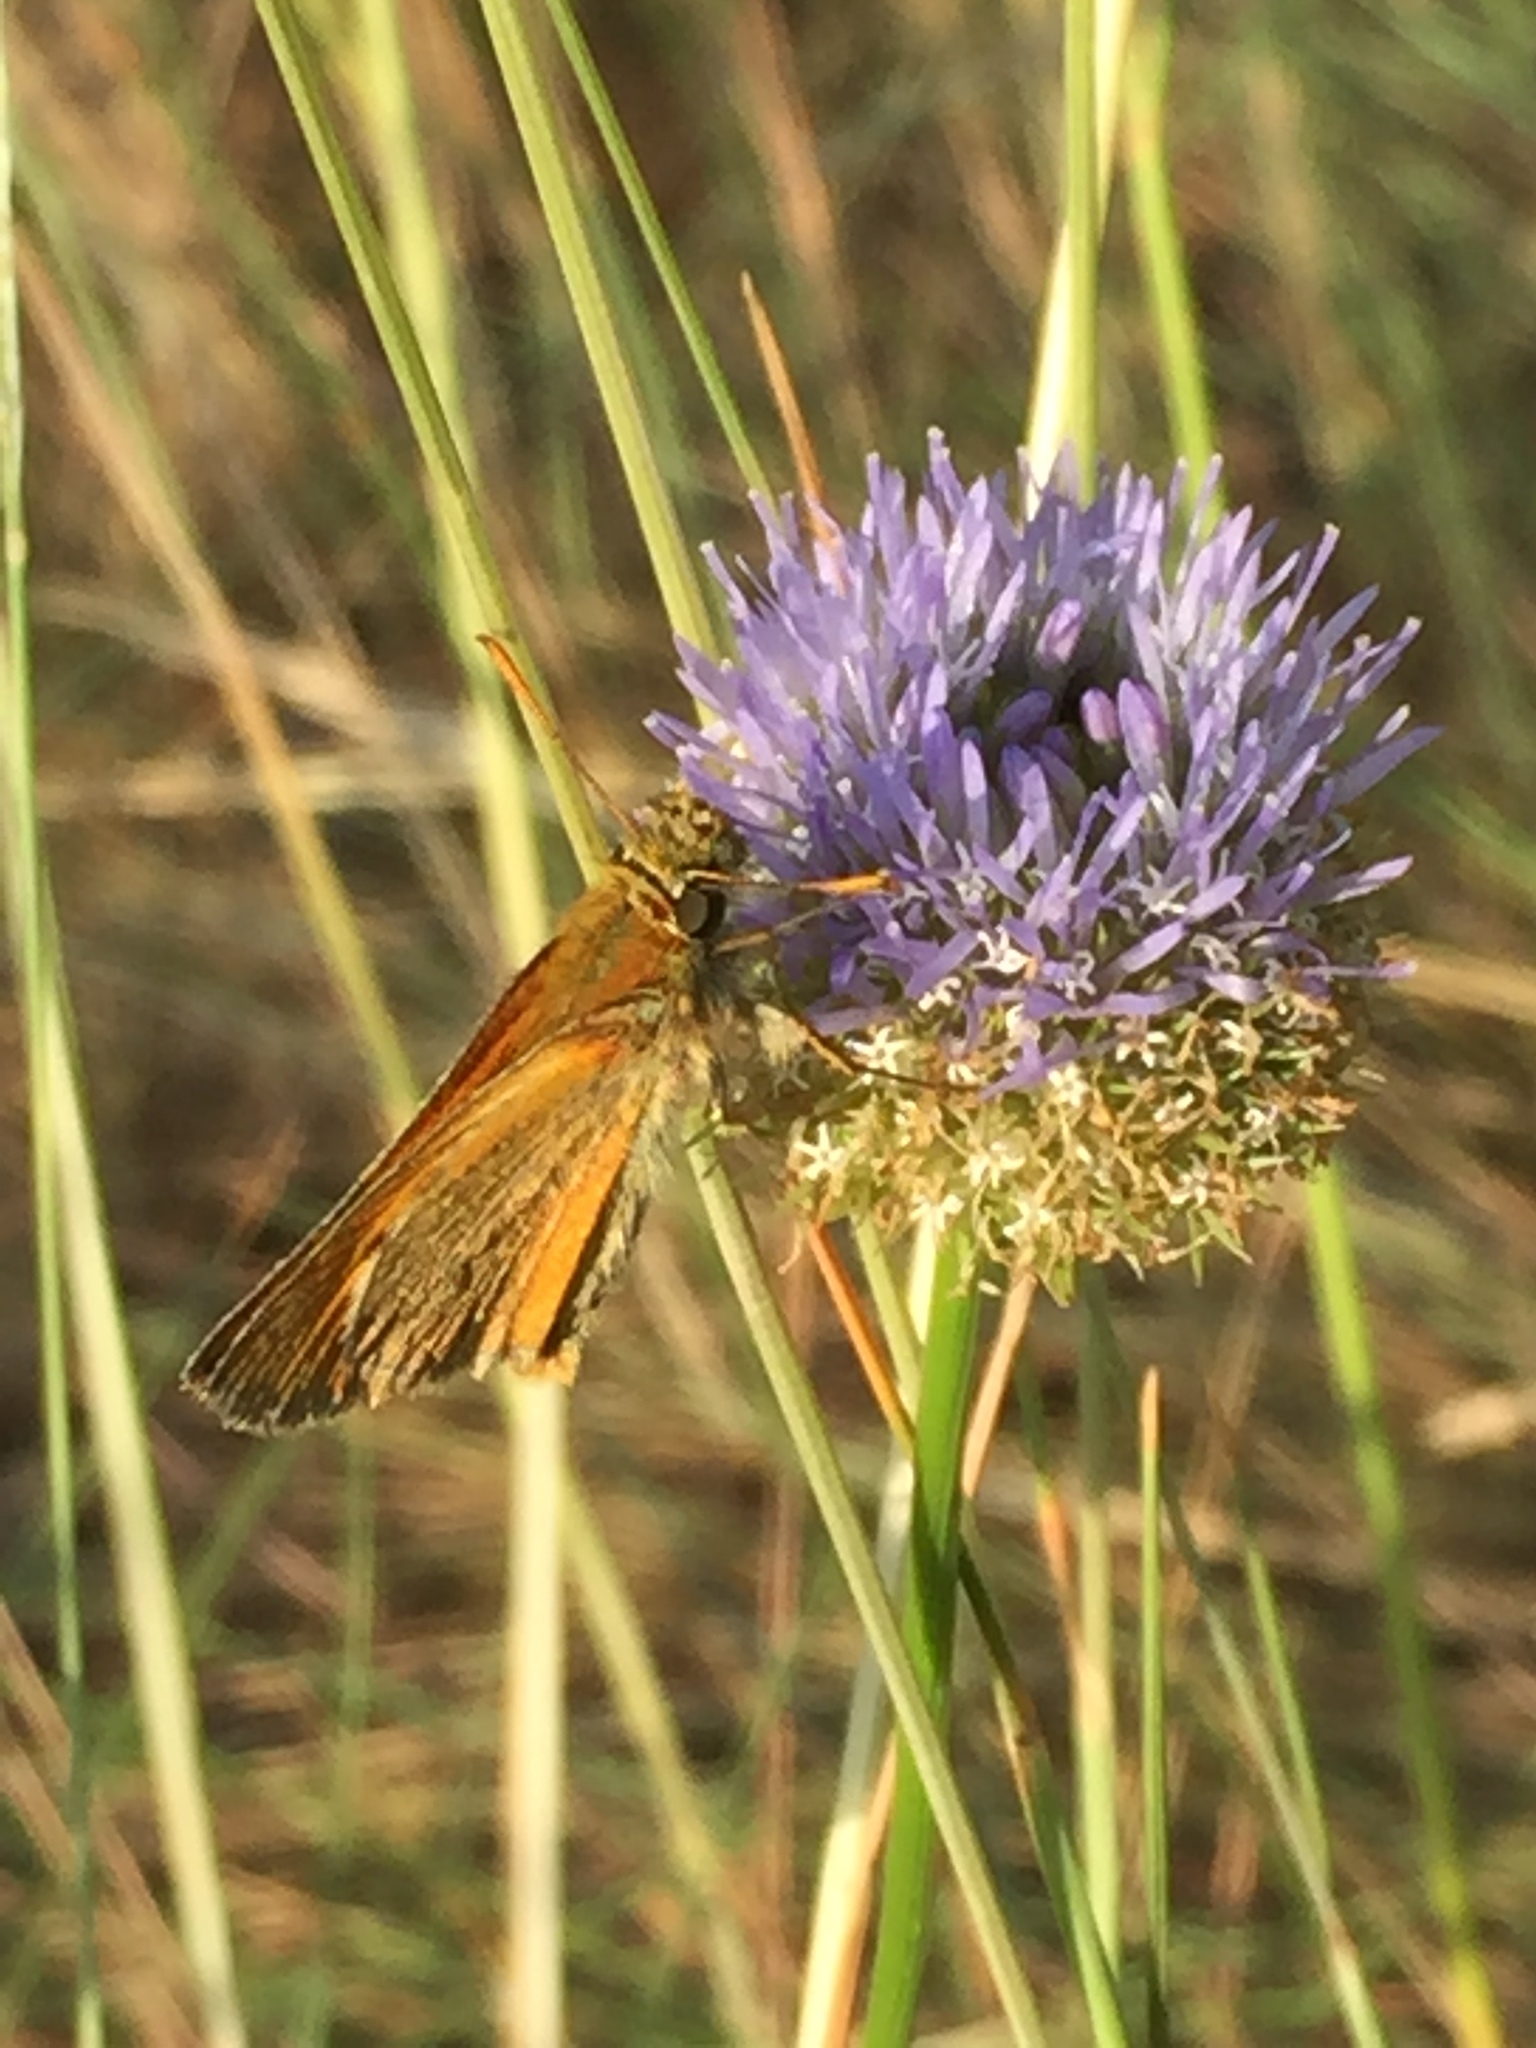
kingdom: Plantae
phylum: Tracheophyta
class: Magnoliopsida
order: Asterales
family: Campanulaceae
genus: Jasione
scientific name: Jasione montana
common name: Sheep's-bit
